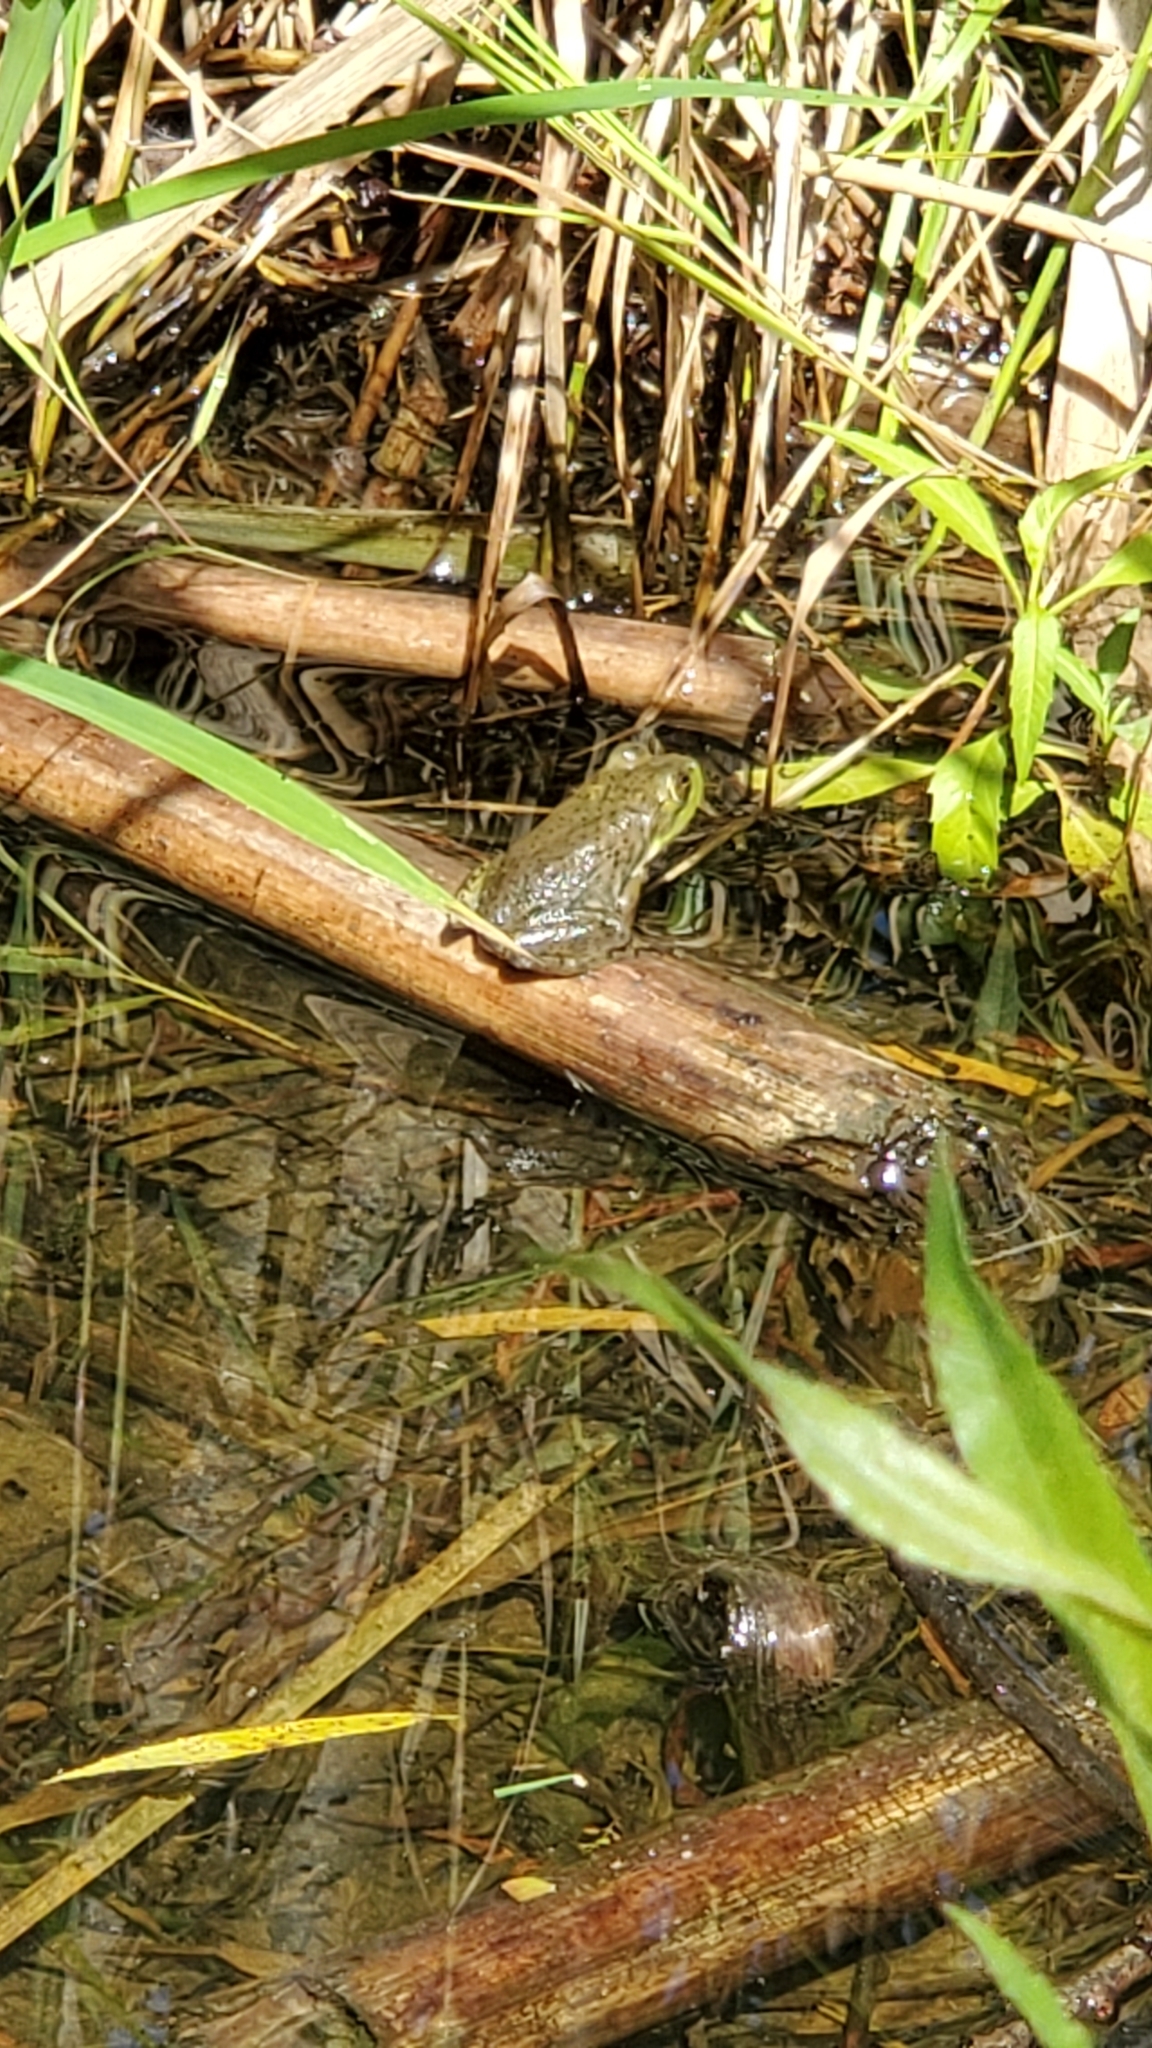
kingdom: Animalia
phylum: Chordata
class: Amphibia
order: Anura
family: Ranidae
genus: Lithobates
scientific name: Lithobates catesbeianus
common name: American bullfrog
